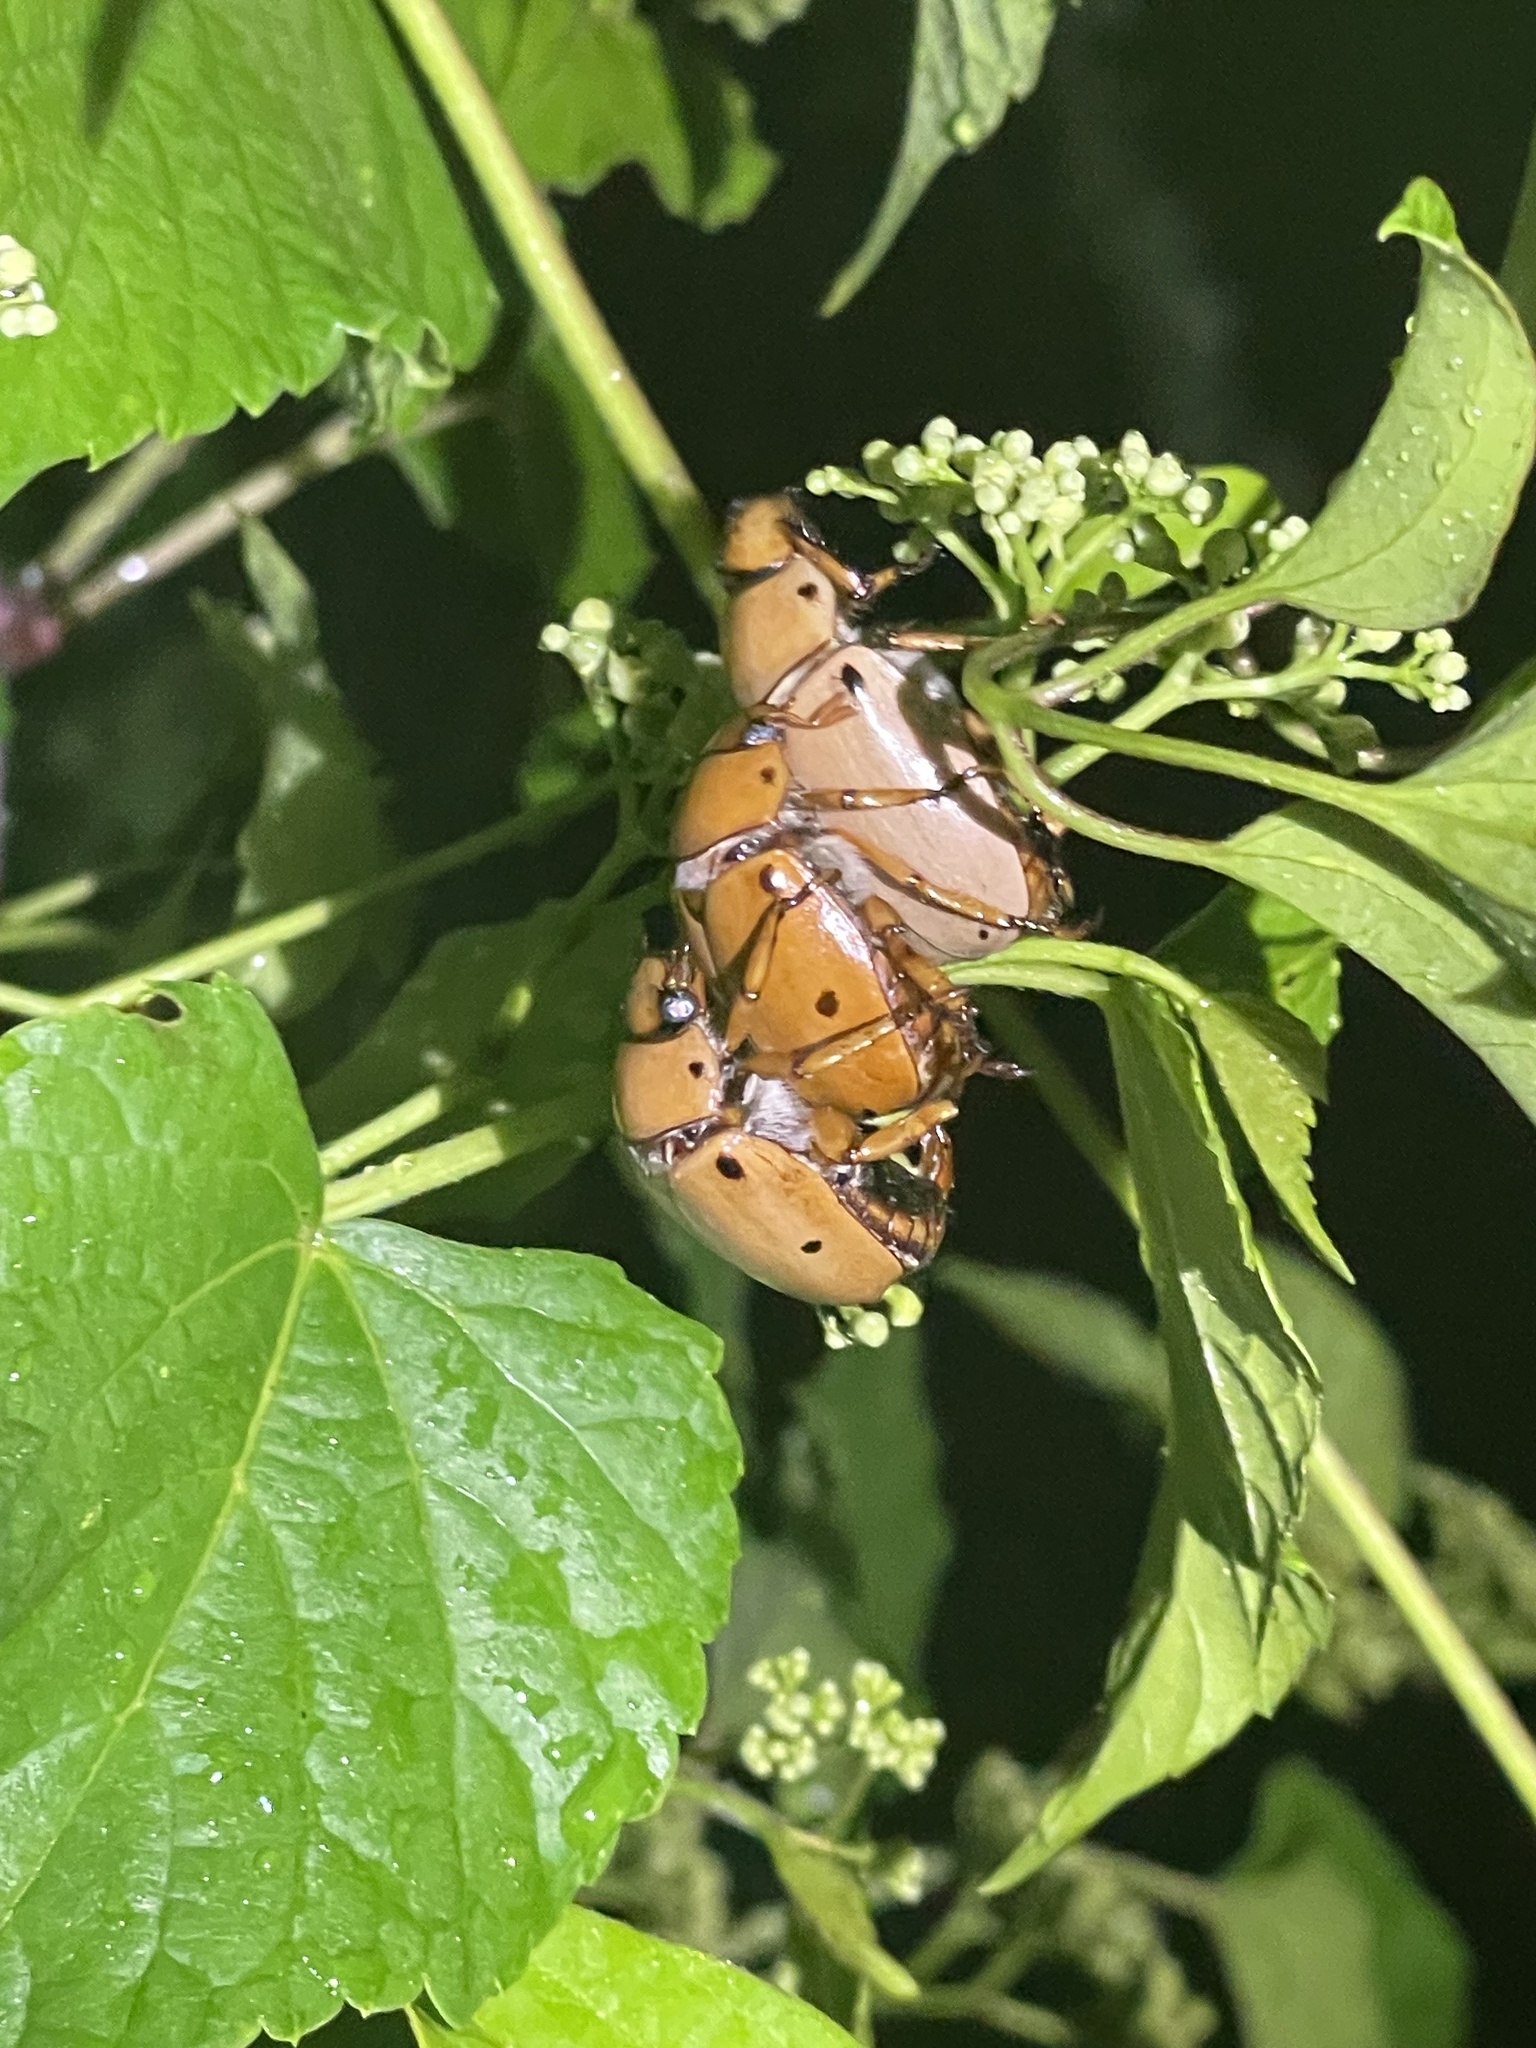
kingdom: Animalia
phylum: Arthropoda
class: Insecta
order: Coleoptera
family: Scarabaeidae
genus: Pelidnota
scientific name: Pelidnota punctata
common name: Grapevine beetle
